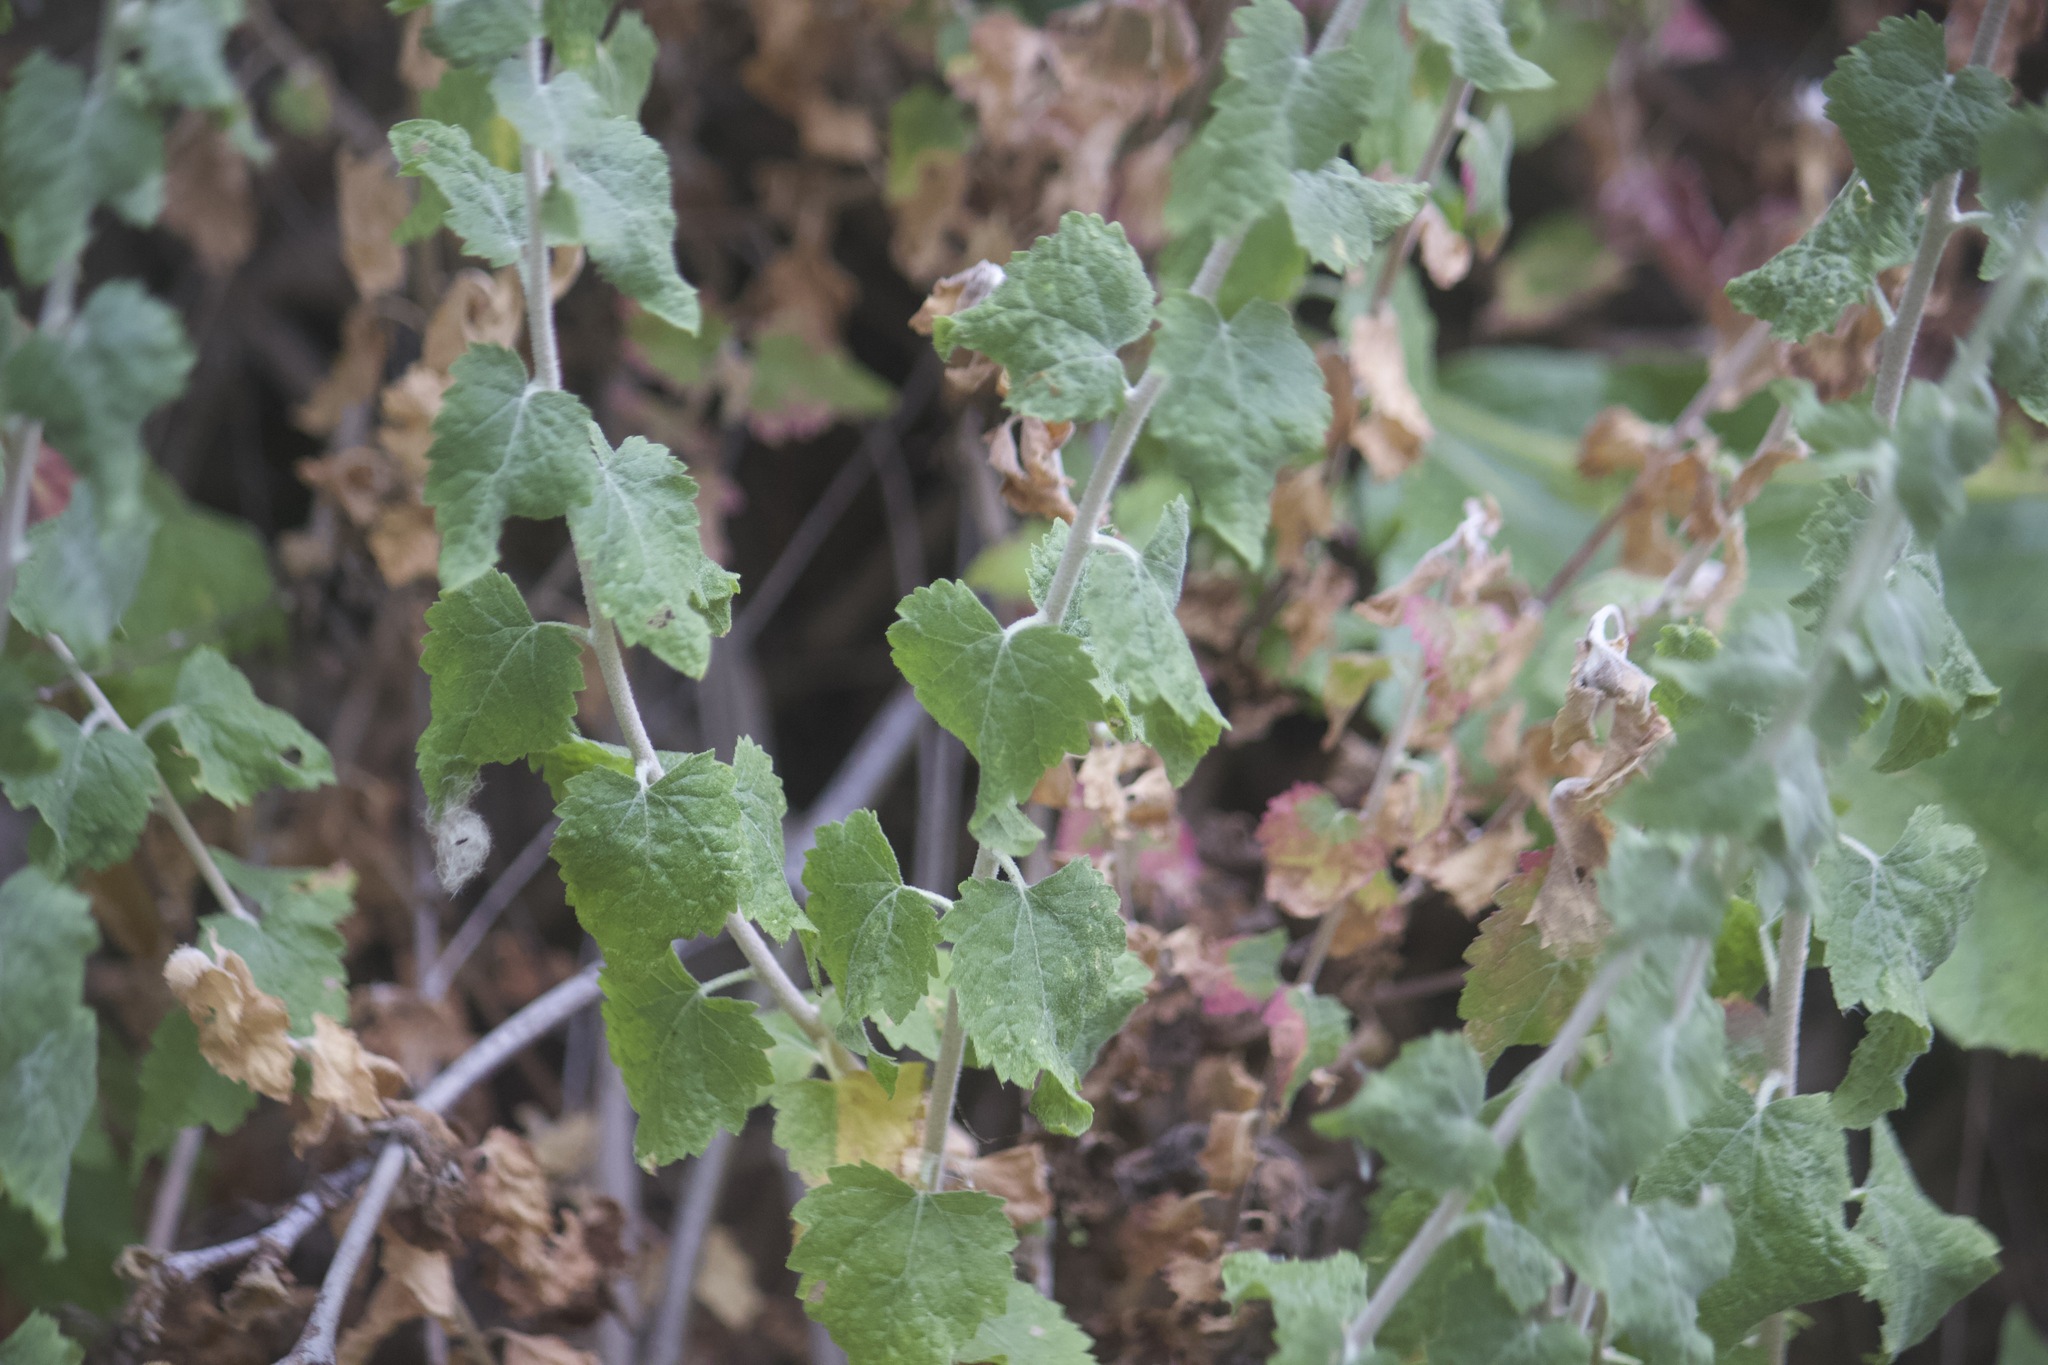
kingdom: Plantae
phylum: Tracheophyta
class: Magnoliopsida
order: Asterales
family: Asteraceae
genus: Brickellia
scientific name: Brickellia californica
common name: California brickellbush
